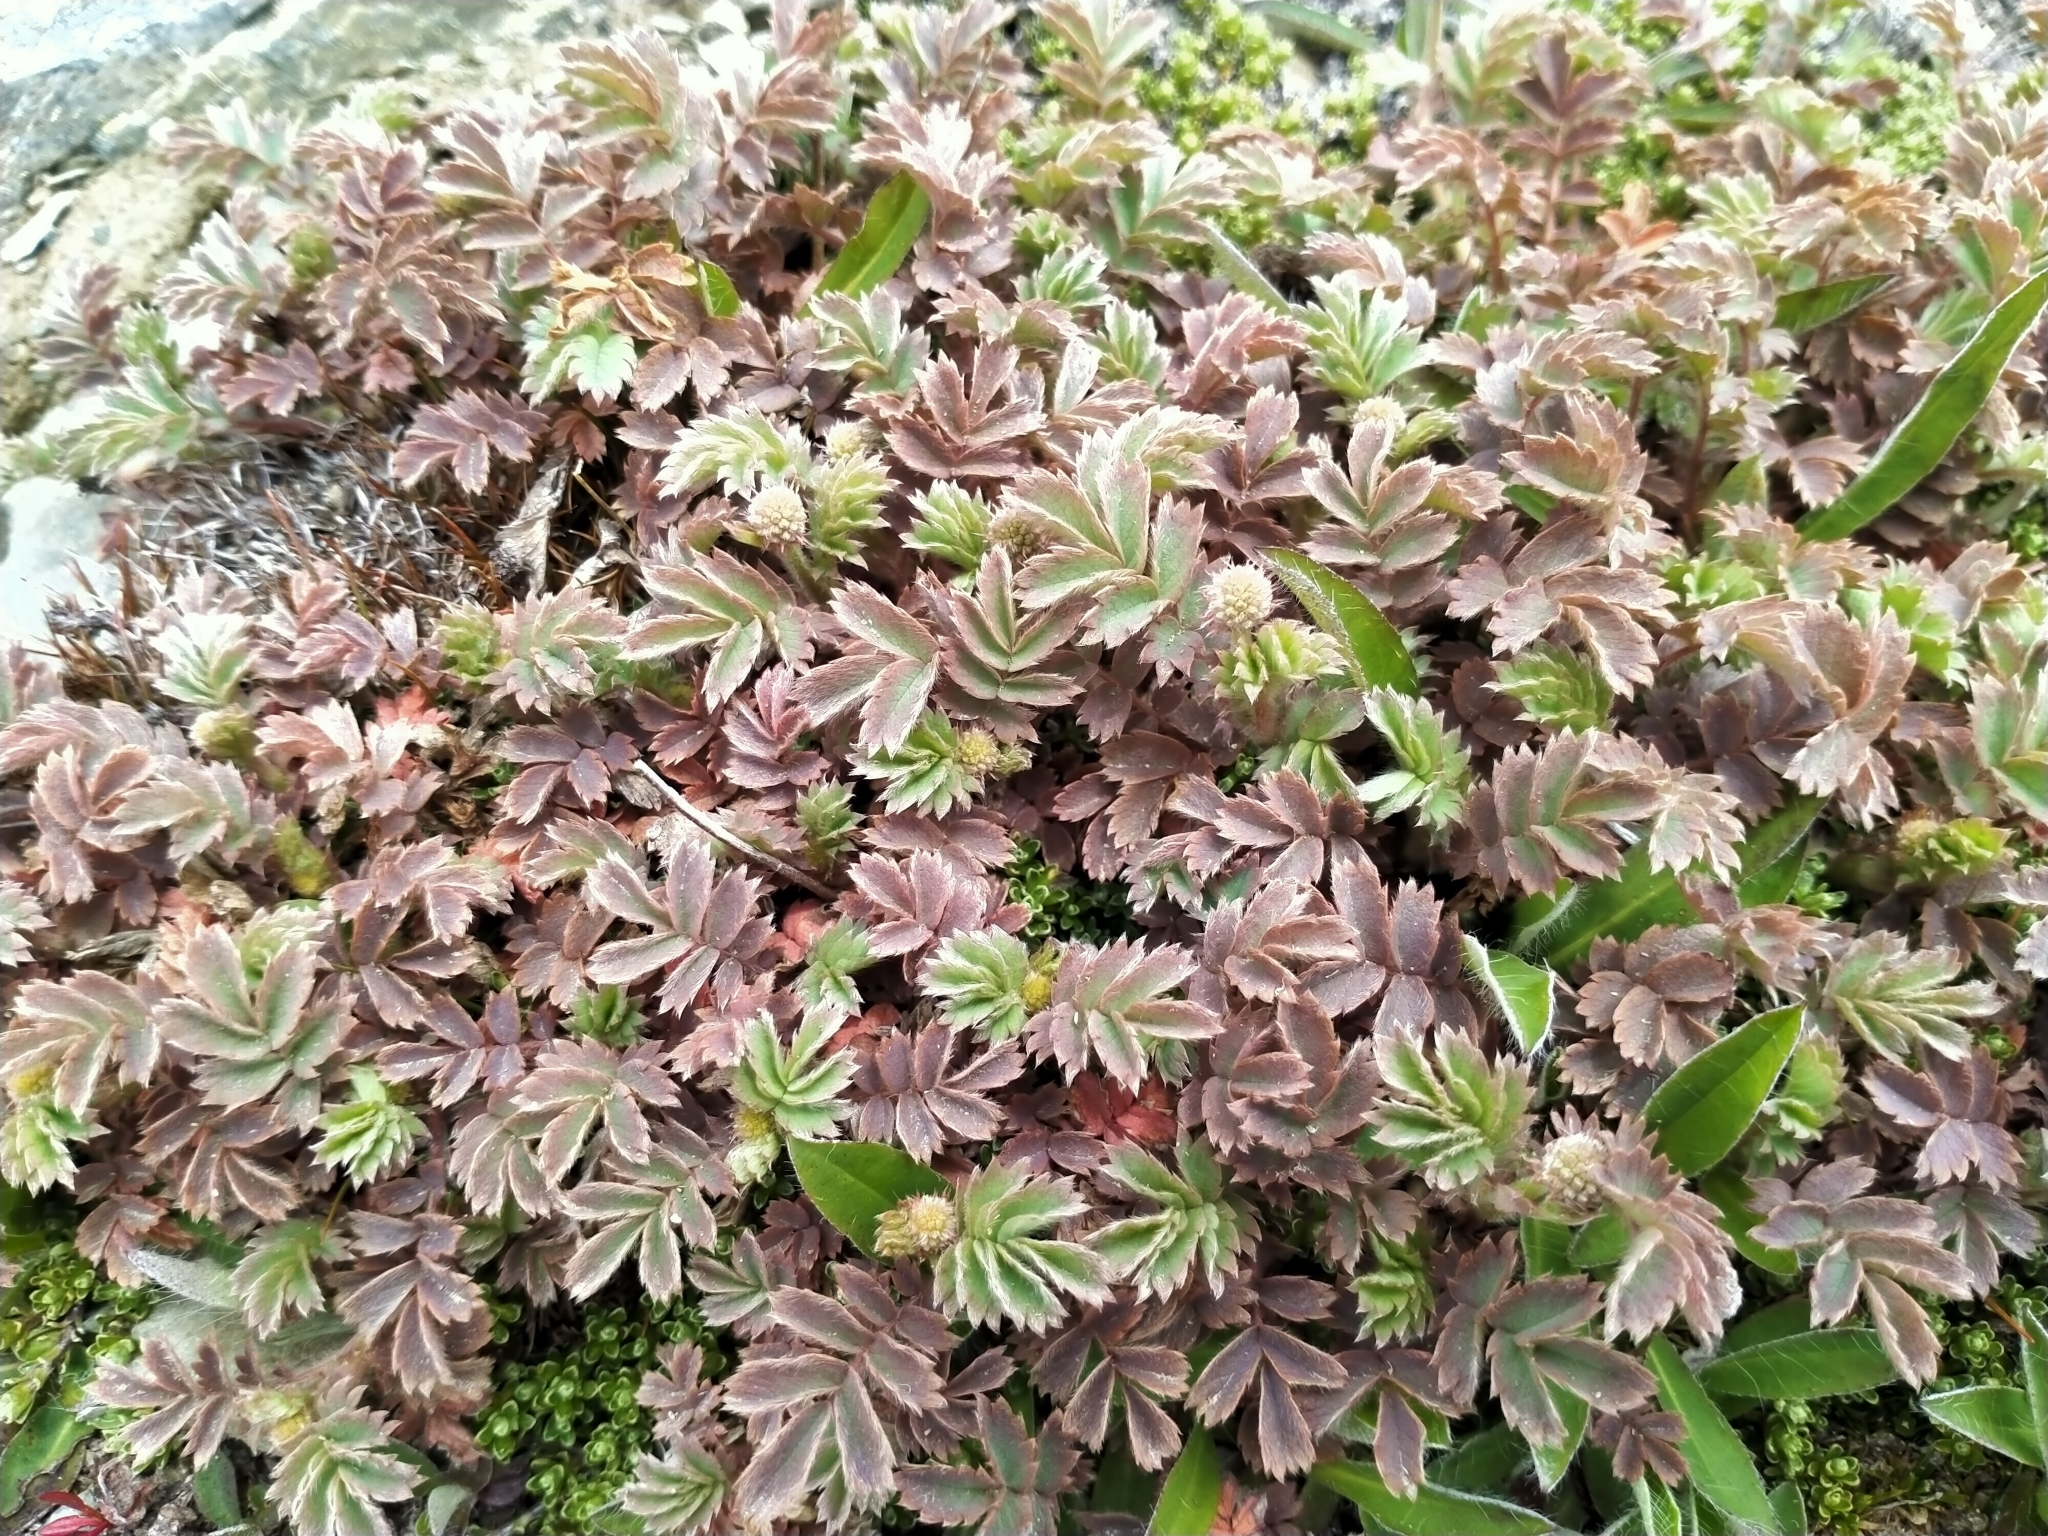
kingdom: Plantae
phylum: Tracheophyta
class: Magnoliopsida
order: Rosales
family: Rosaceae
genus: Acaena
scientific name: Acaena profundeincisa
